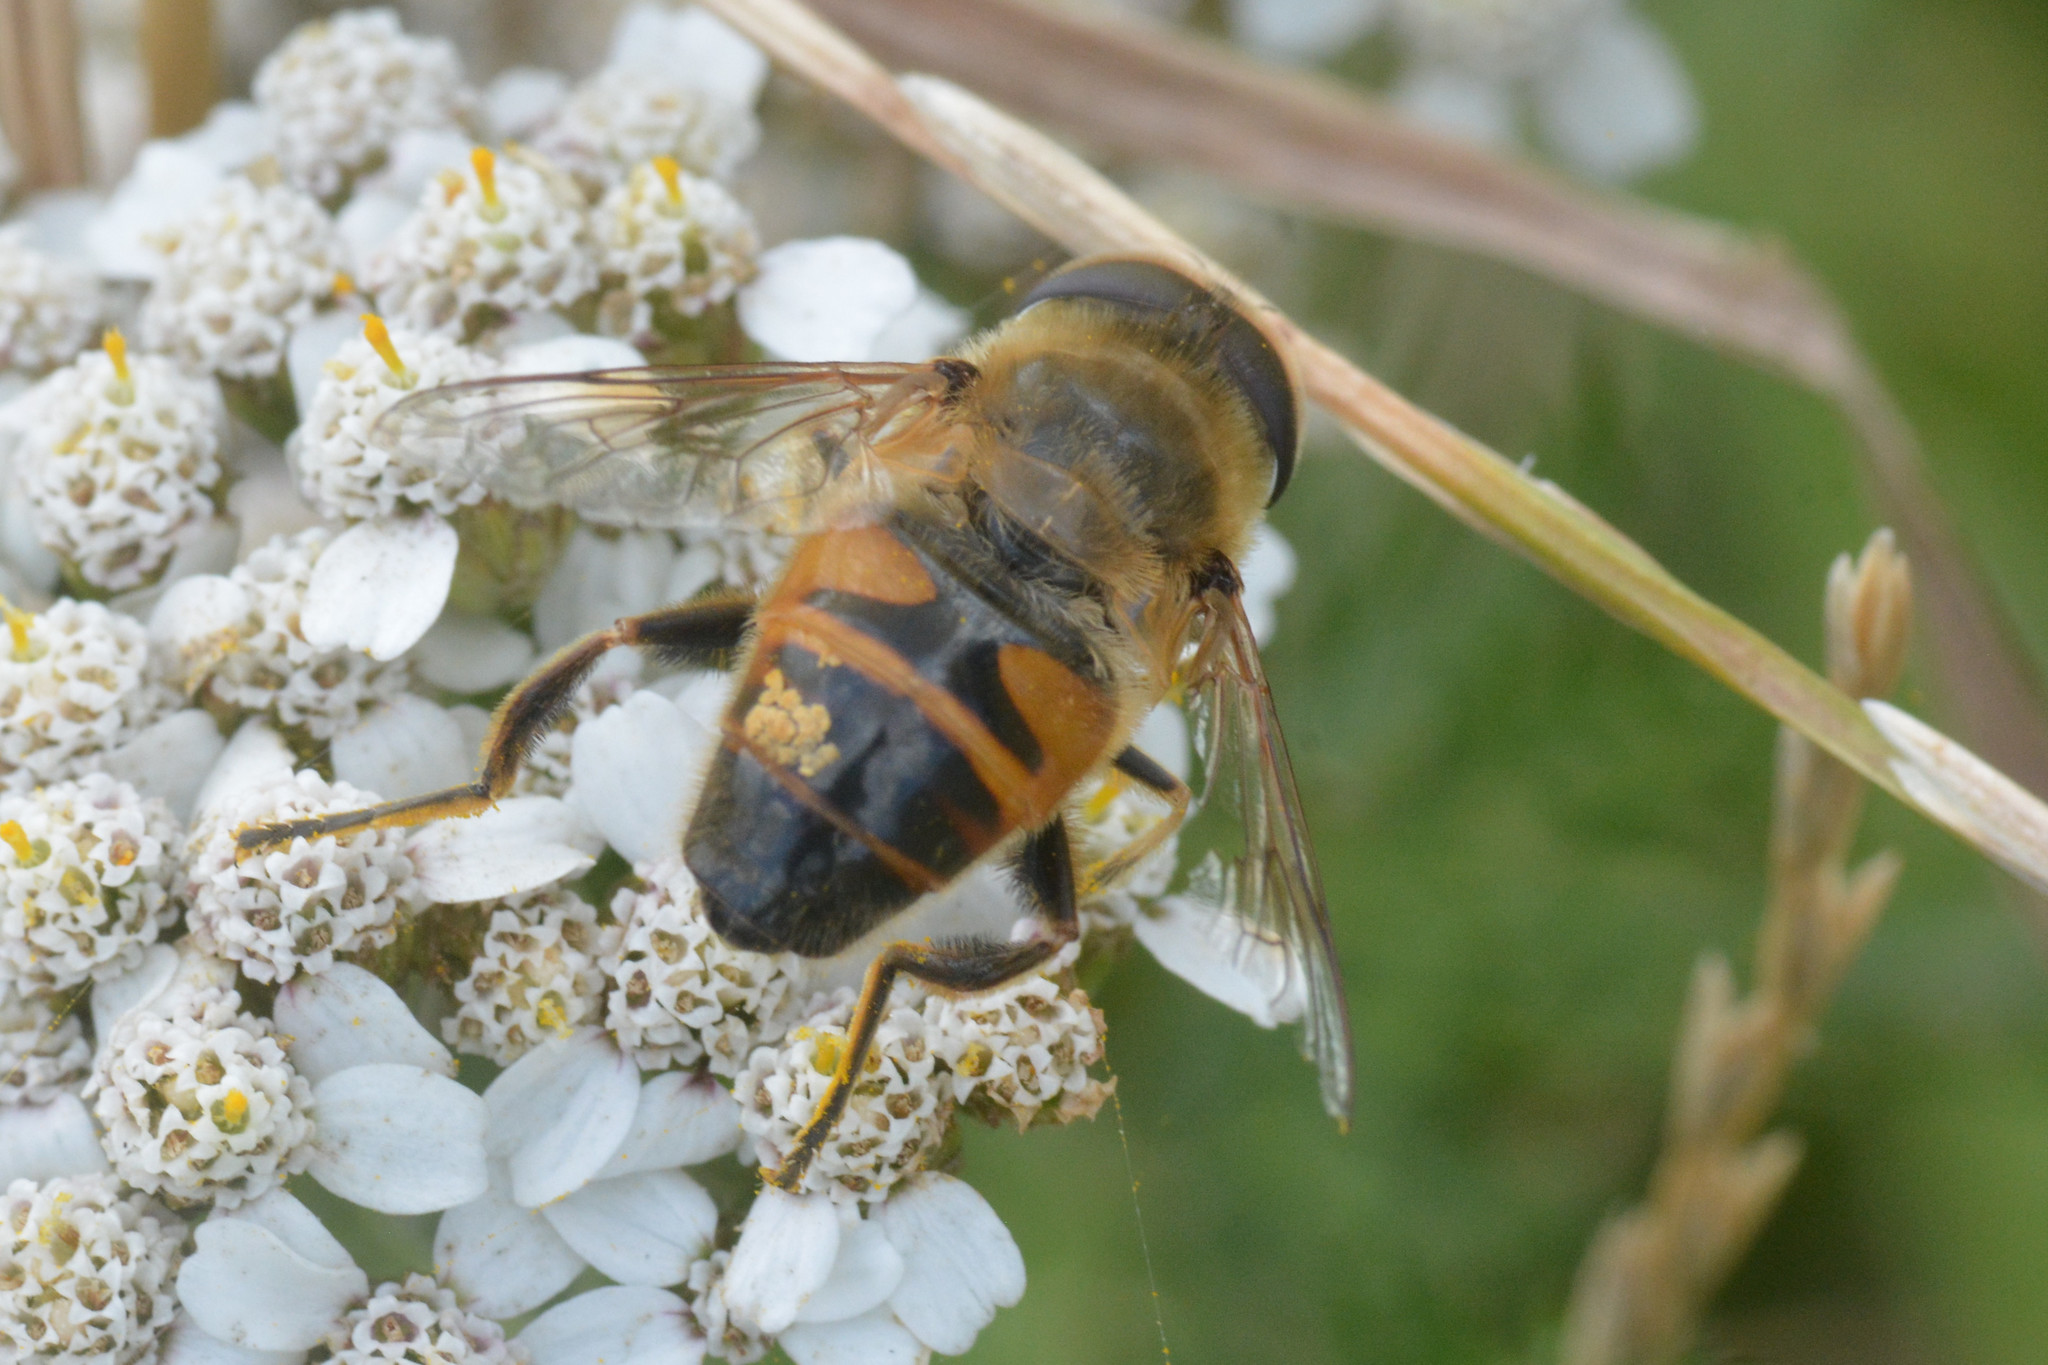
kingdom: Animalia
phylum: Arthropoda
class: Insecta
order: Diptera
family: Syrphidae
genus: Eristalis
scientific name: Eristalis tenax
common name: Drone fly
